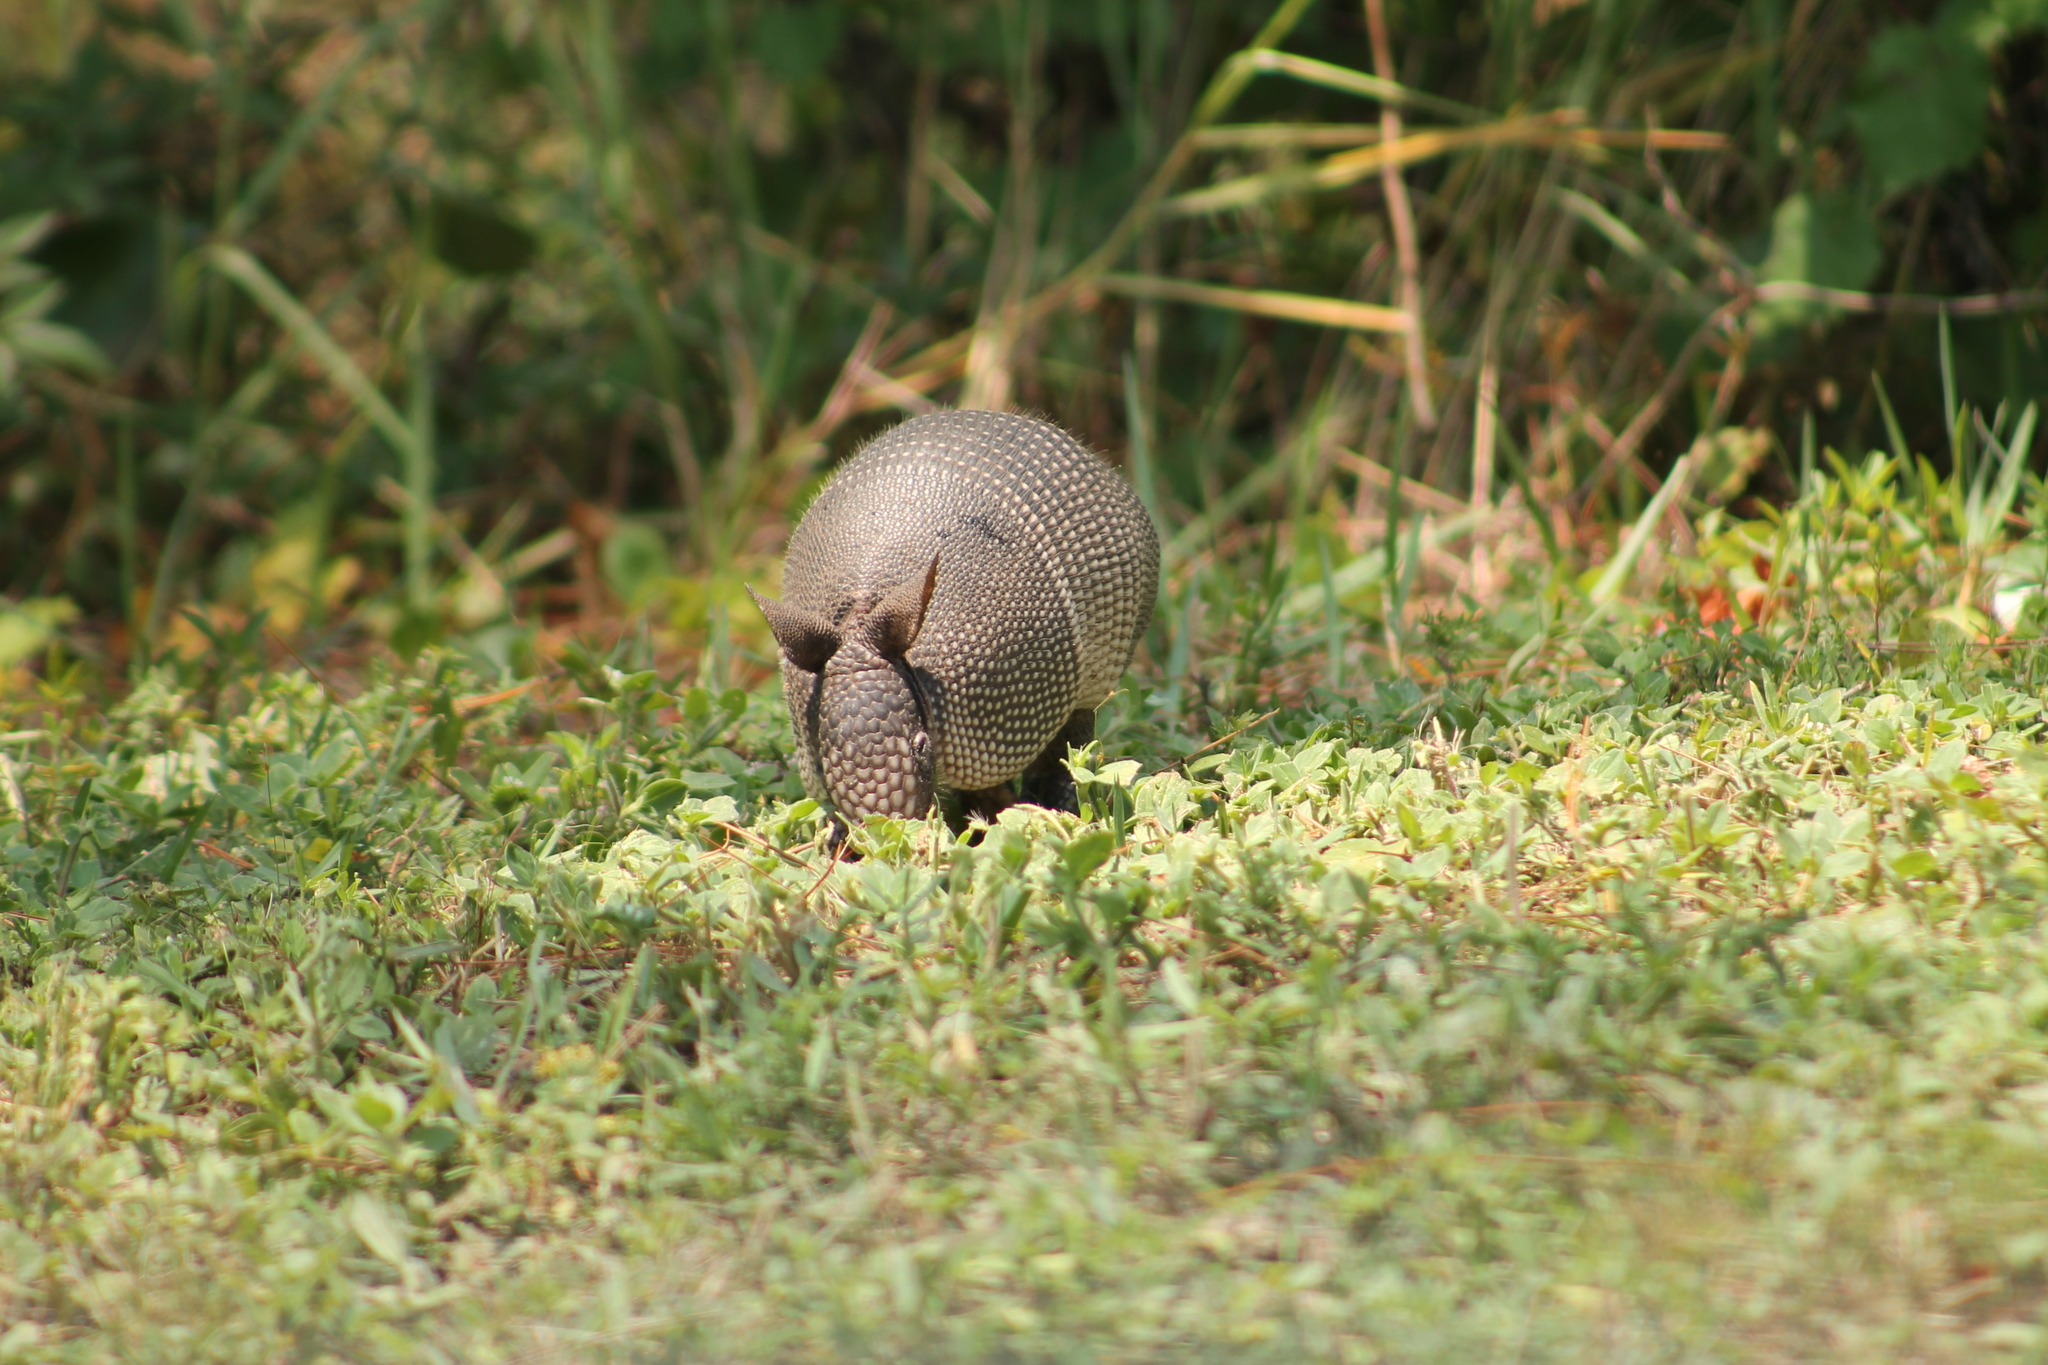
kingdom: Animalia
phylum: Chordata
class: Mammalia
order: Cingulata
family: Dasypodidae
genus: Dasypus
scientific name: Dasypus novemcinctus
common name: Nine-banded armadillo
